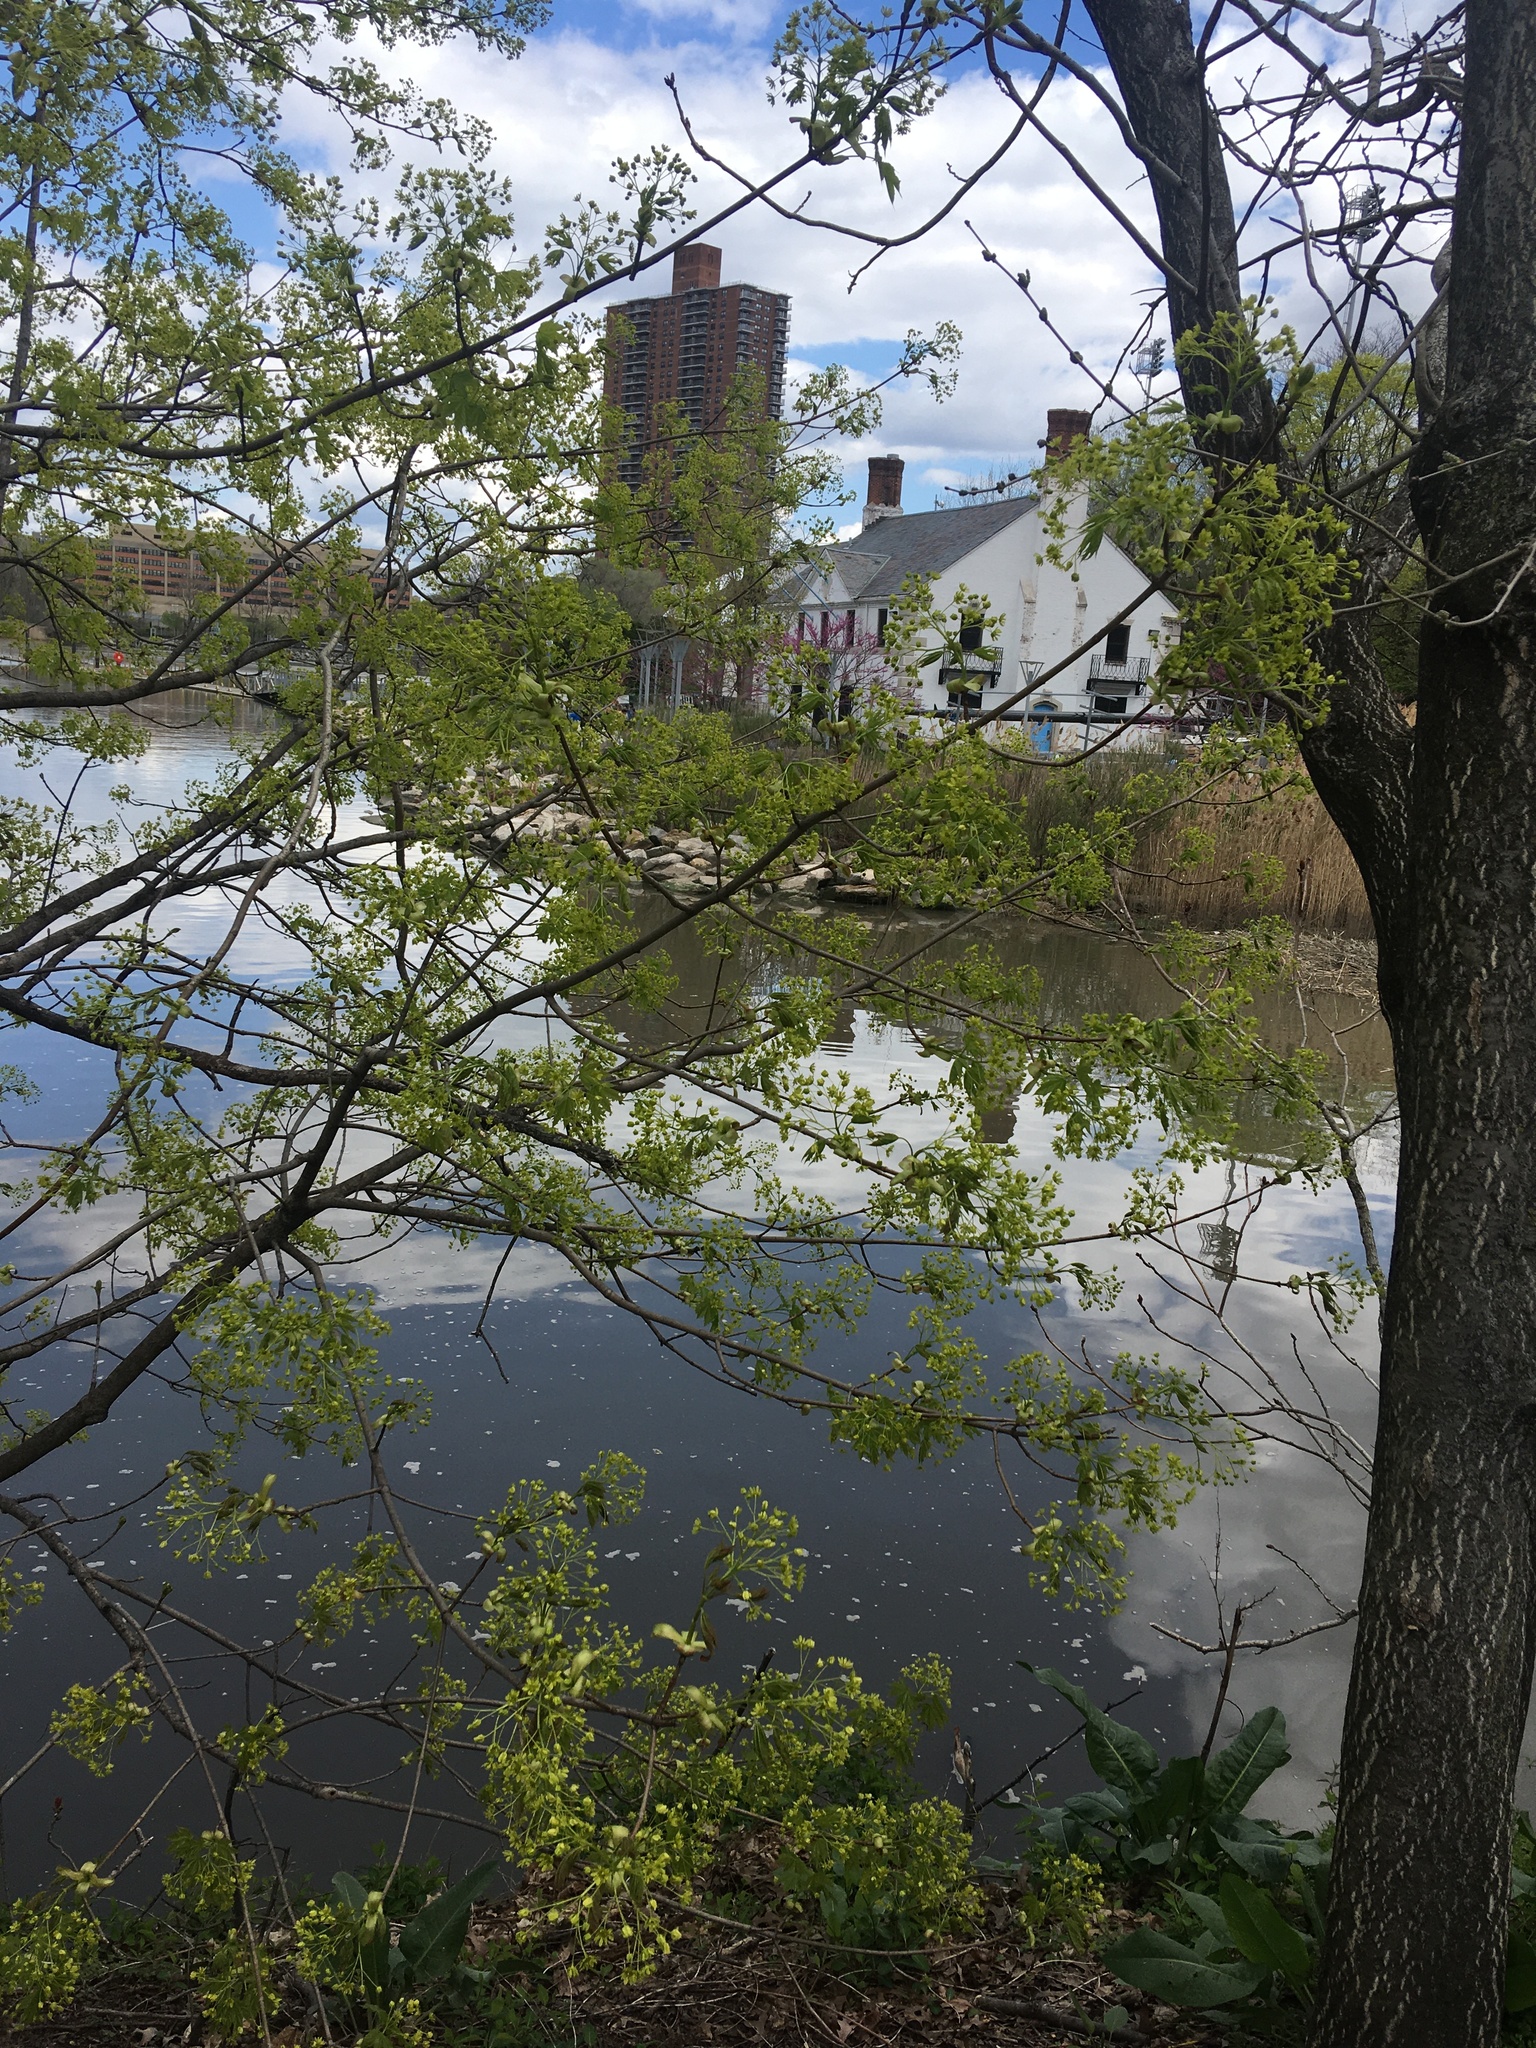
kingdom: Plantae
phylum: Tracheophyta
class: Magnoliopsida
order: Sapindales
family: Sapindaceae
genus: Acer
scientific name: Acer platanoides
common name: Norway maple
